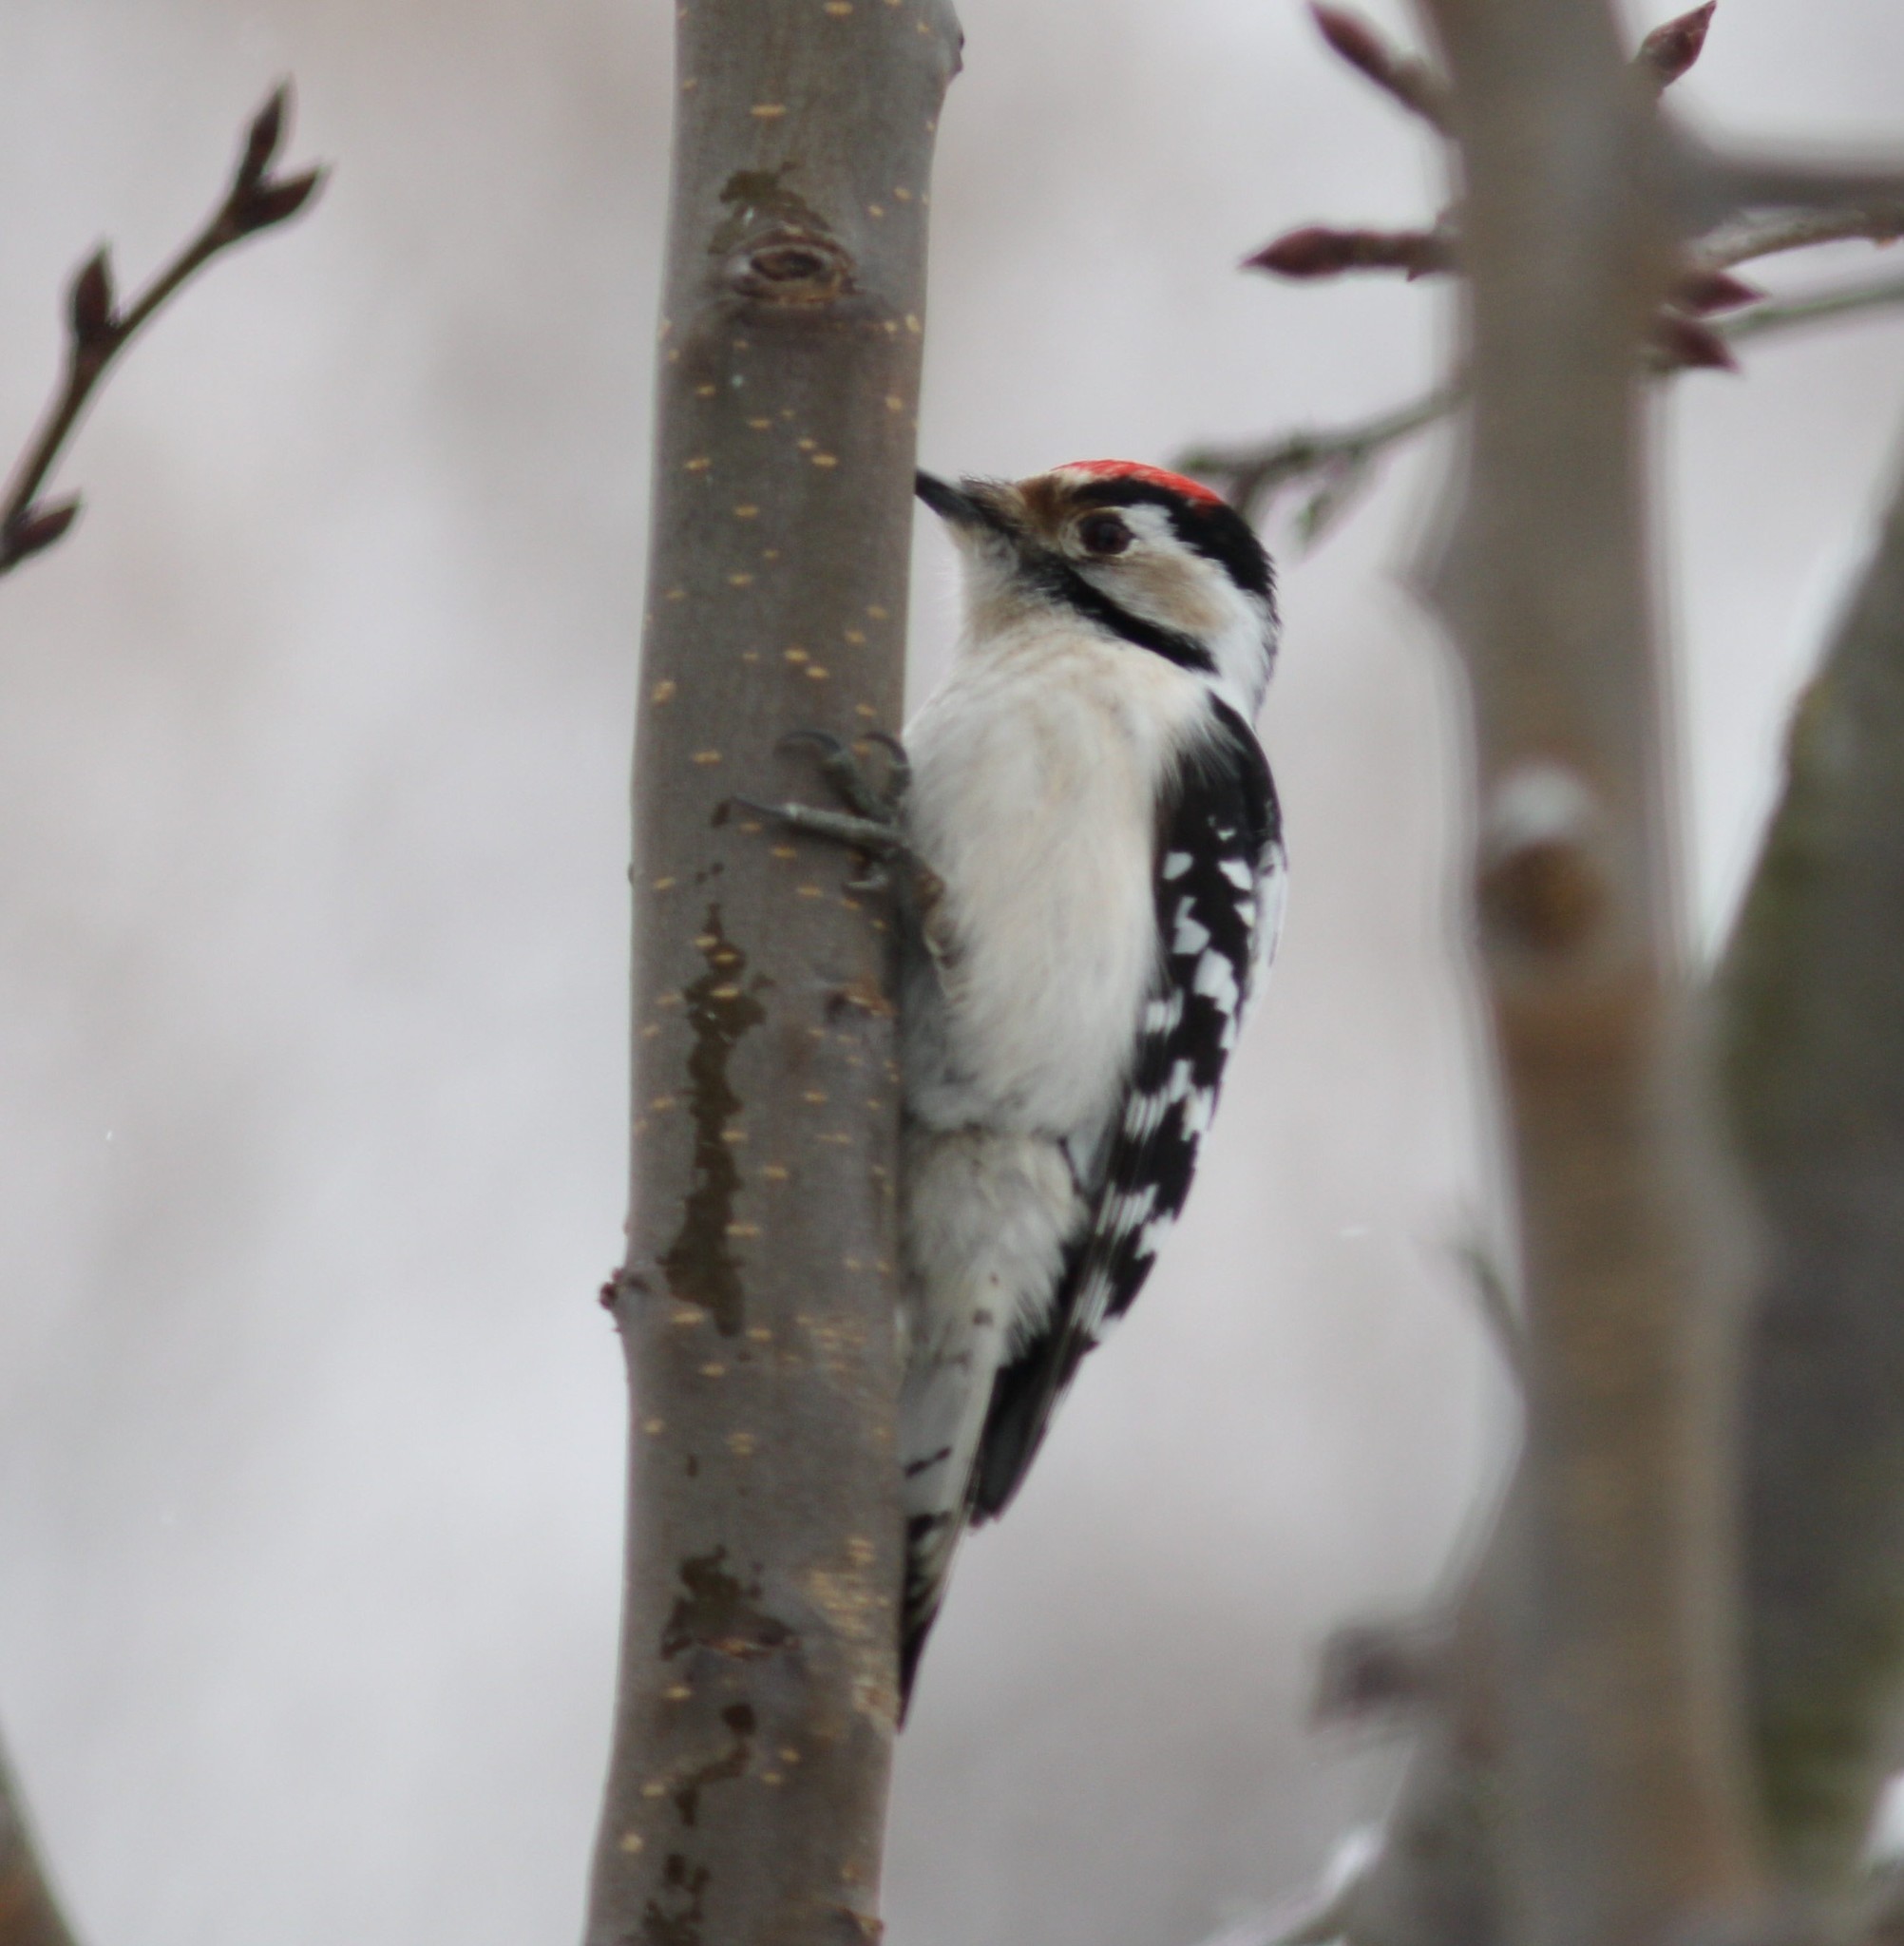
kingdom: Animalia
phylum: Chordata
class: Aves
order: Piciformes
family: Picidae
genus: Dryobates
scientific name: Dryobates minor
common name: Lesser spotted woodpecker
